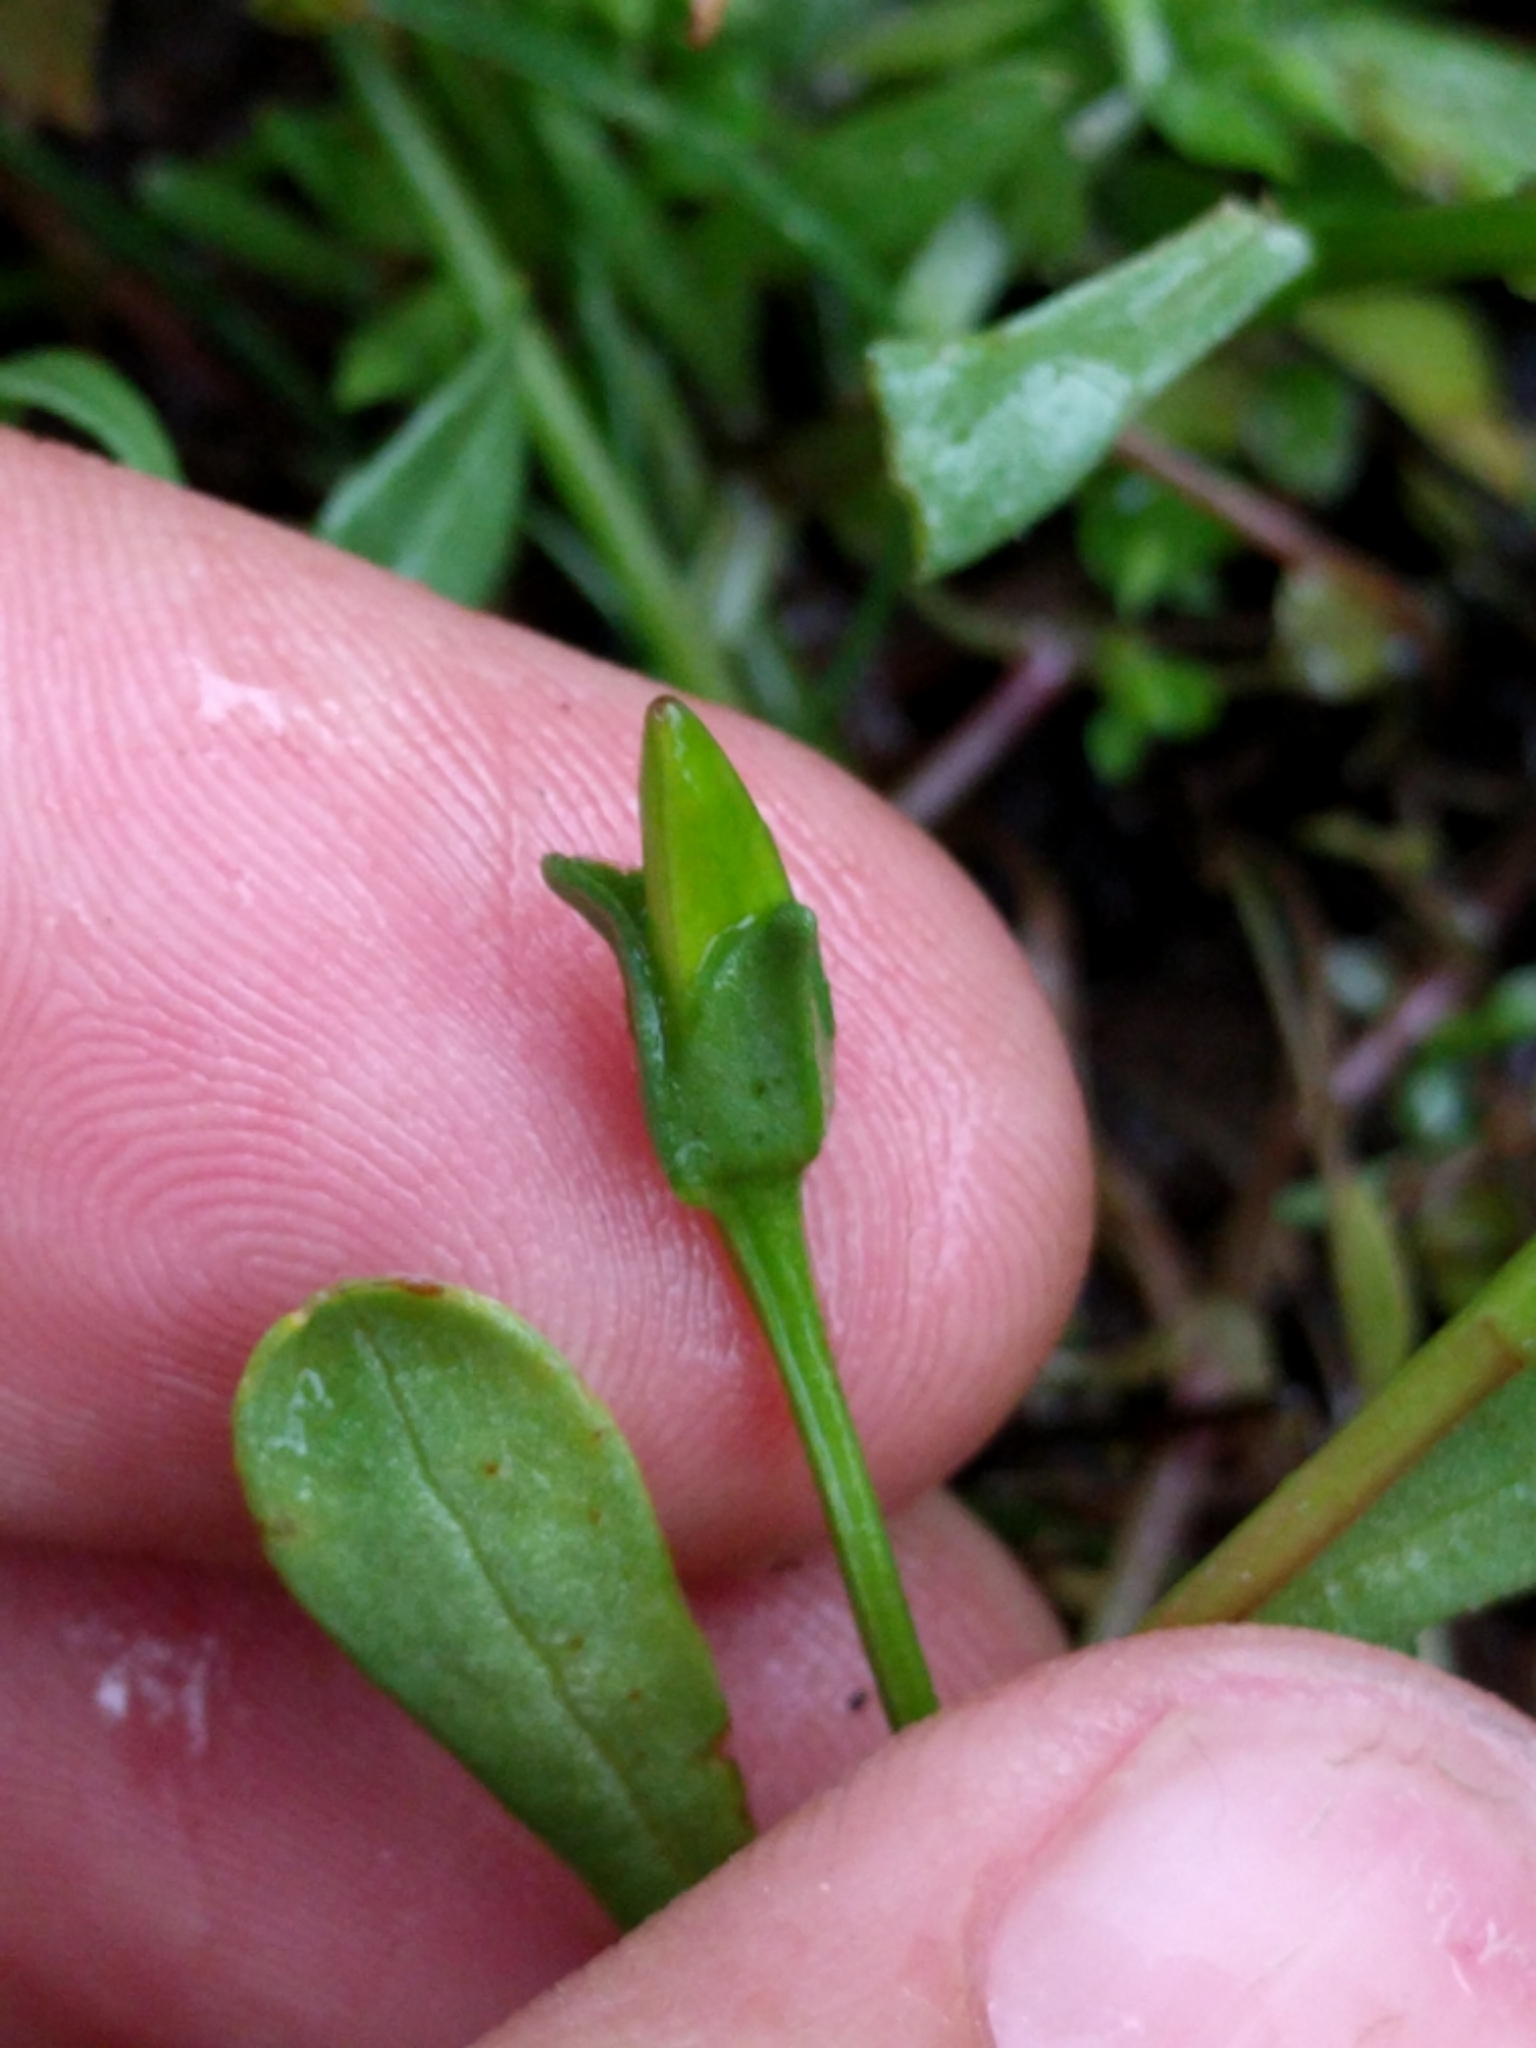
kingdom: Plantae
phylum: Tracheophyta
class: Magnoliopsida
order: Caryophyllales
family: Montiaceae
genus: Calandrinia
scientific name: Calandrinia breweri
